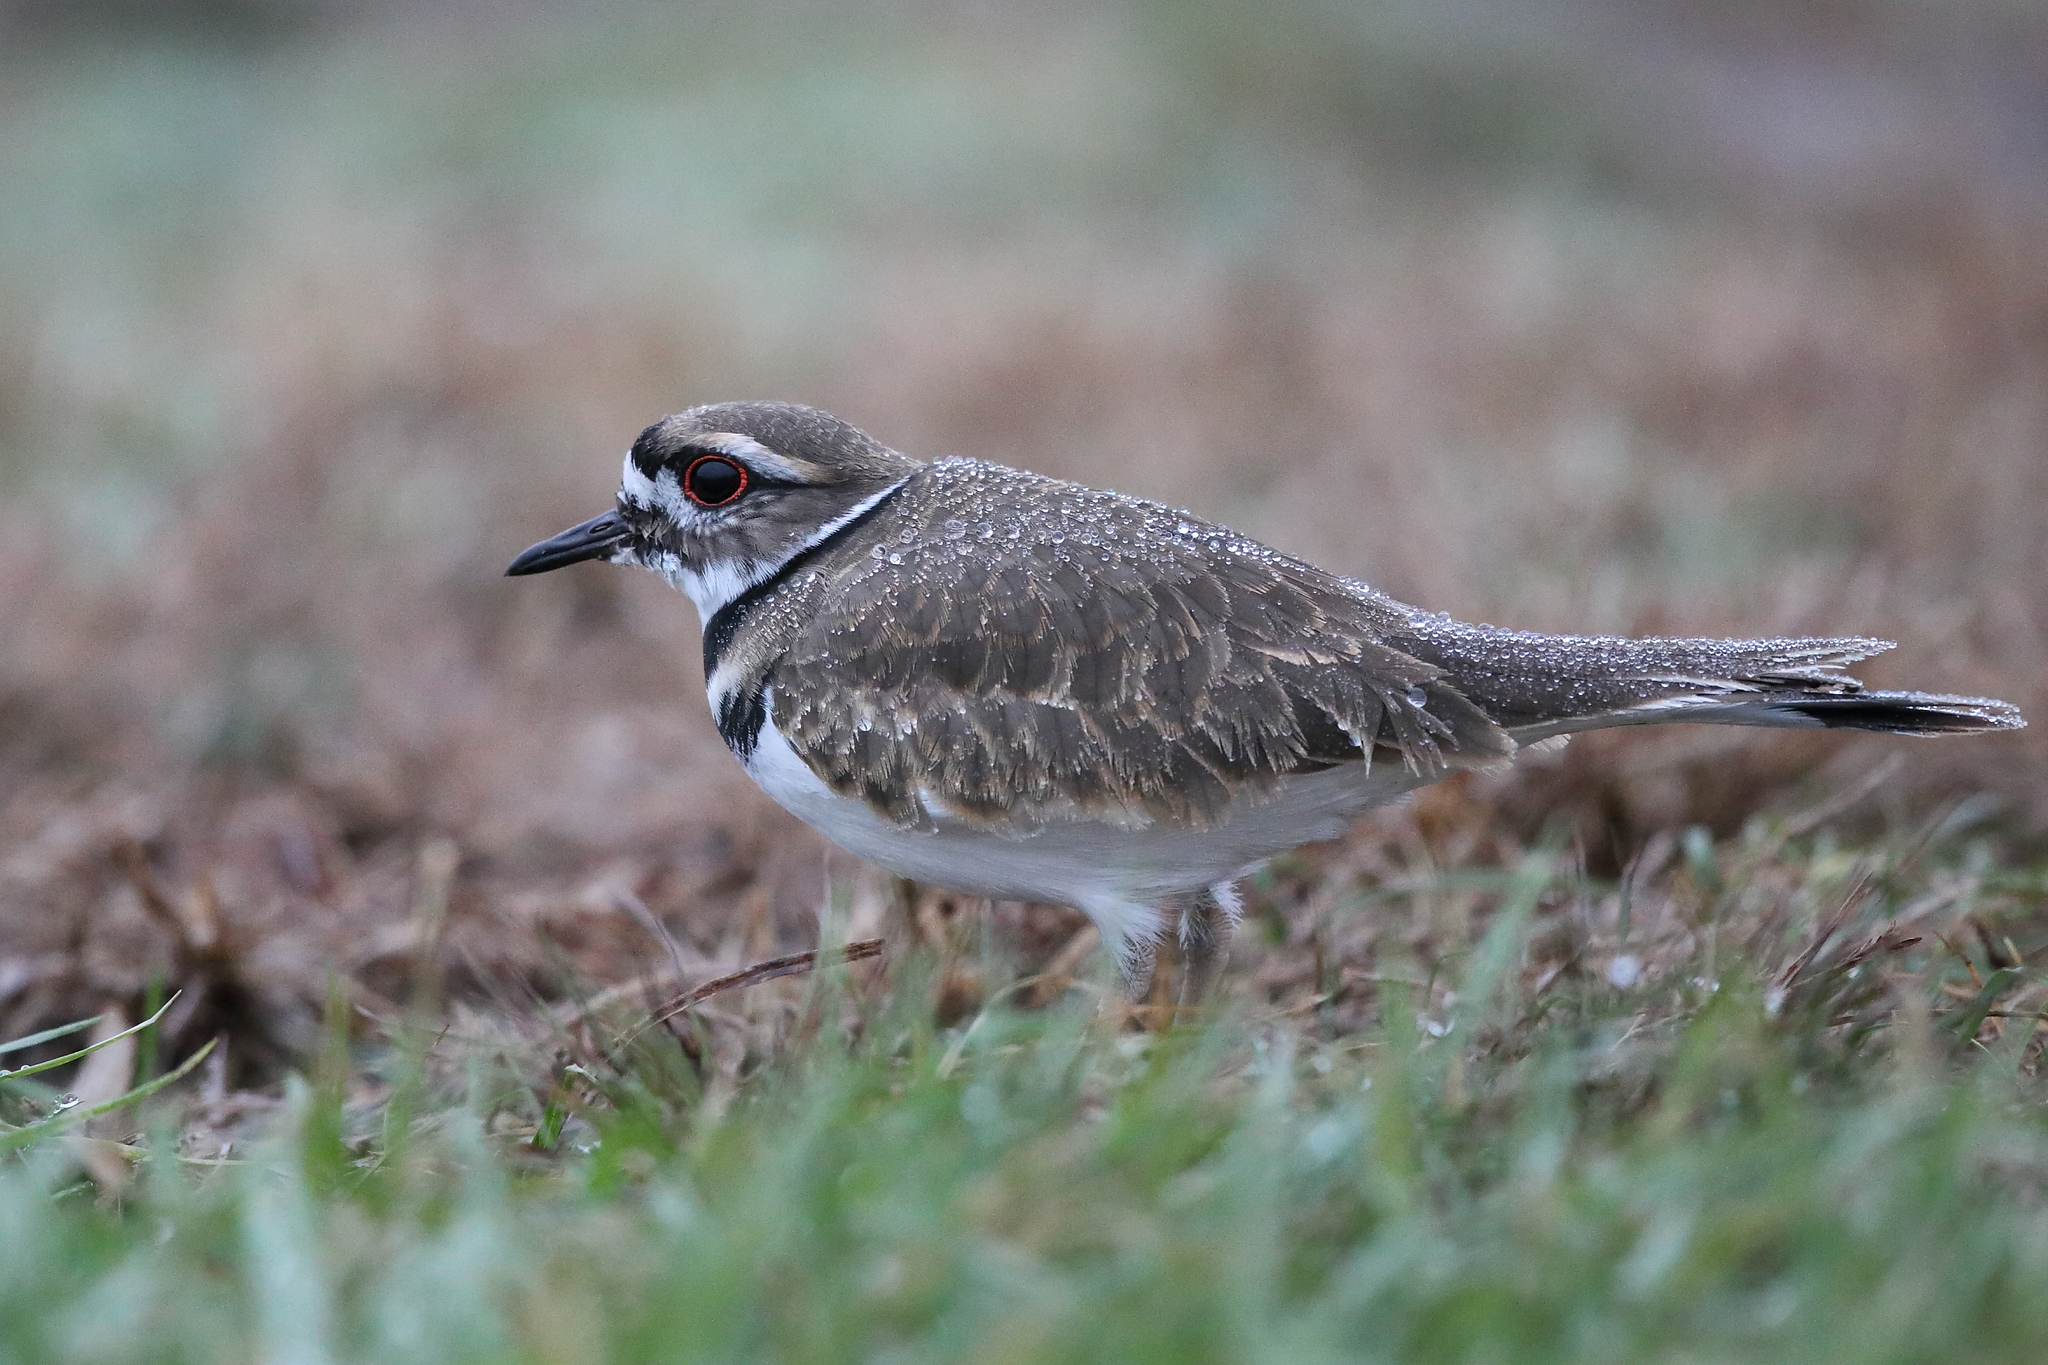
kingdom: Animalia
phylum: Chordata
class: Aves
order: Charadriiformes
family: Charadriidae
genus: Charadrius
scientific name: Charadrius vociferus
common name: Killdeer
